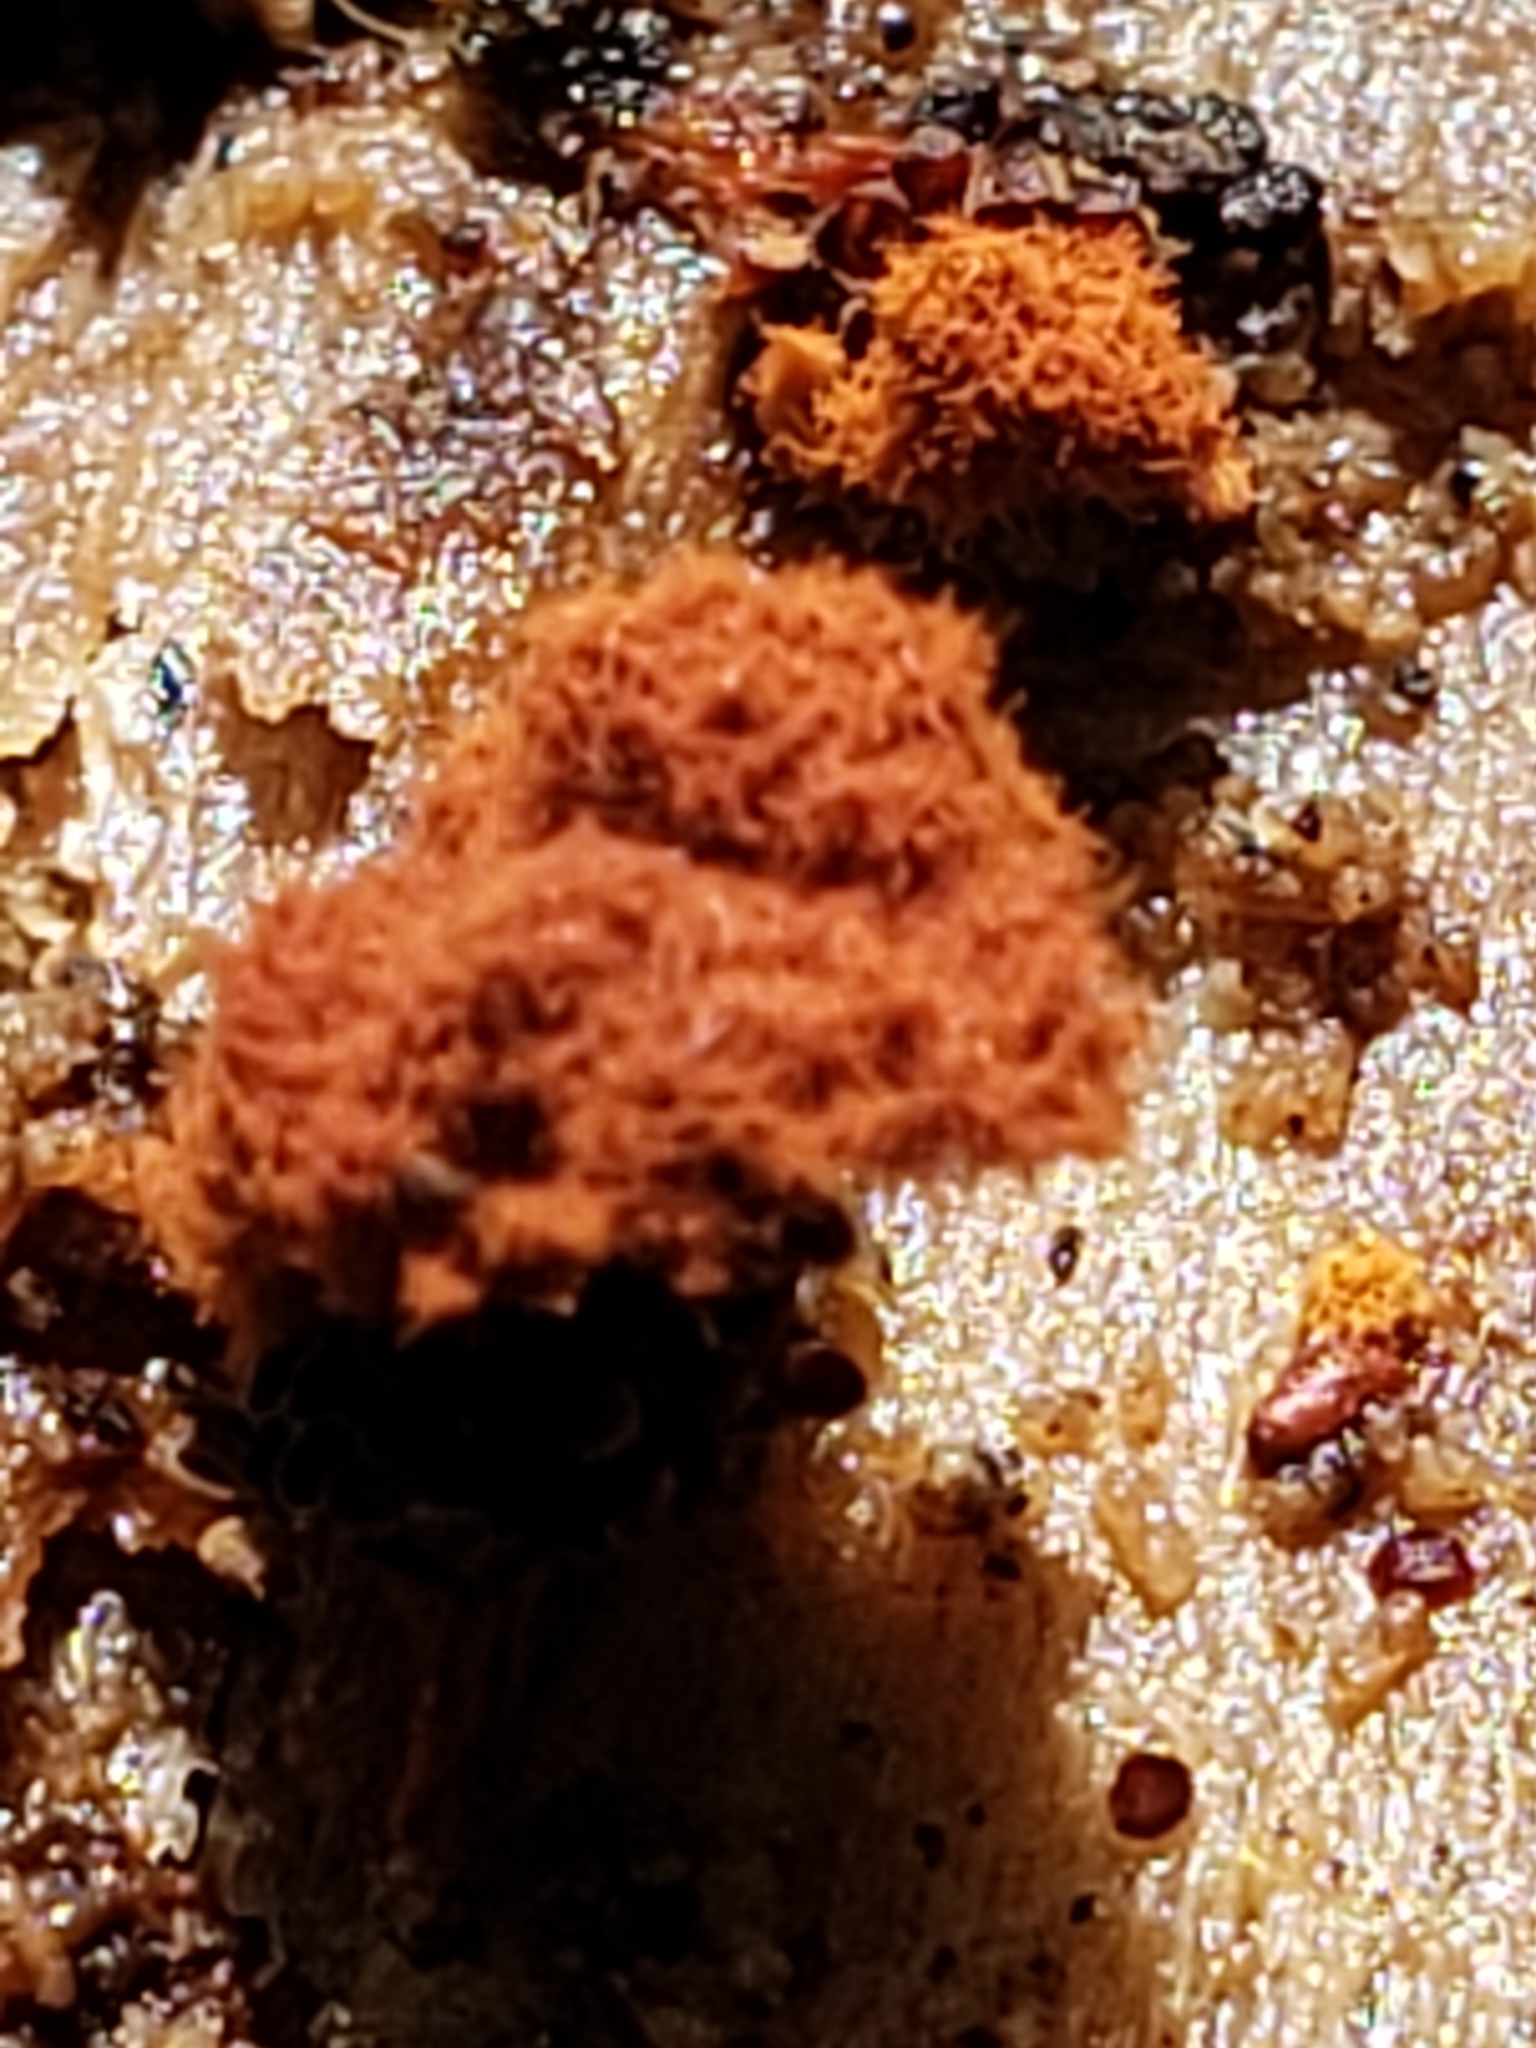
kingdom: Protozoa
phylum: Mycetozoa
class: Myxomycetes
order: Trichiales
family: Trichiaceae
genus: Metatrichia
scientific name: Metatrichia vesparia
